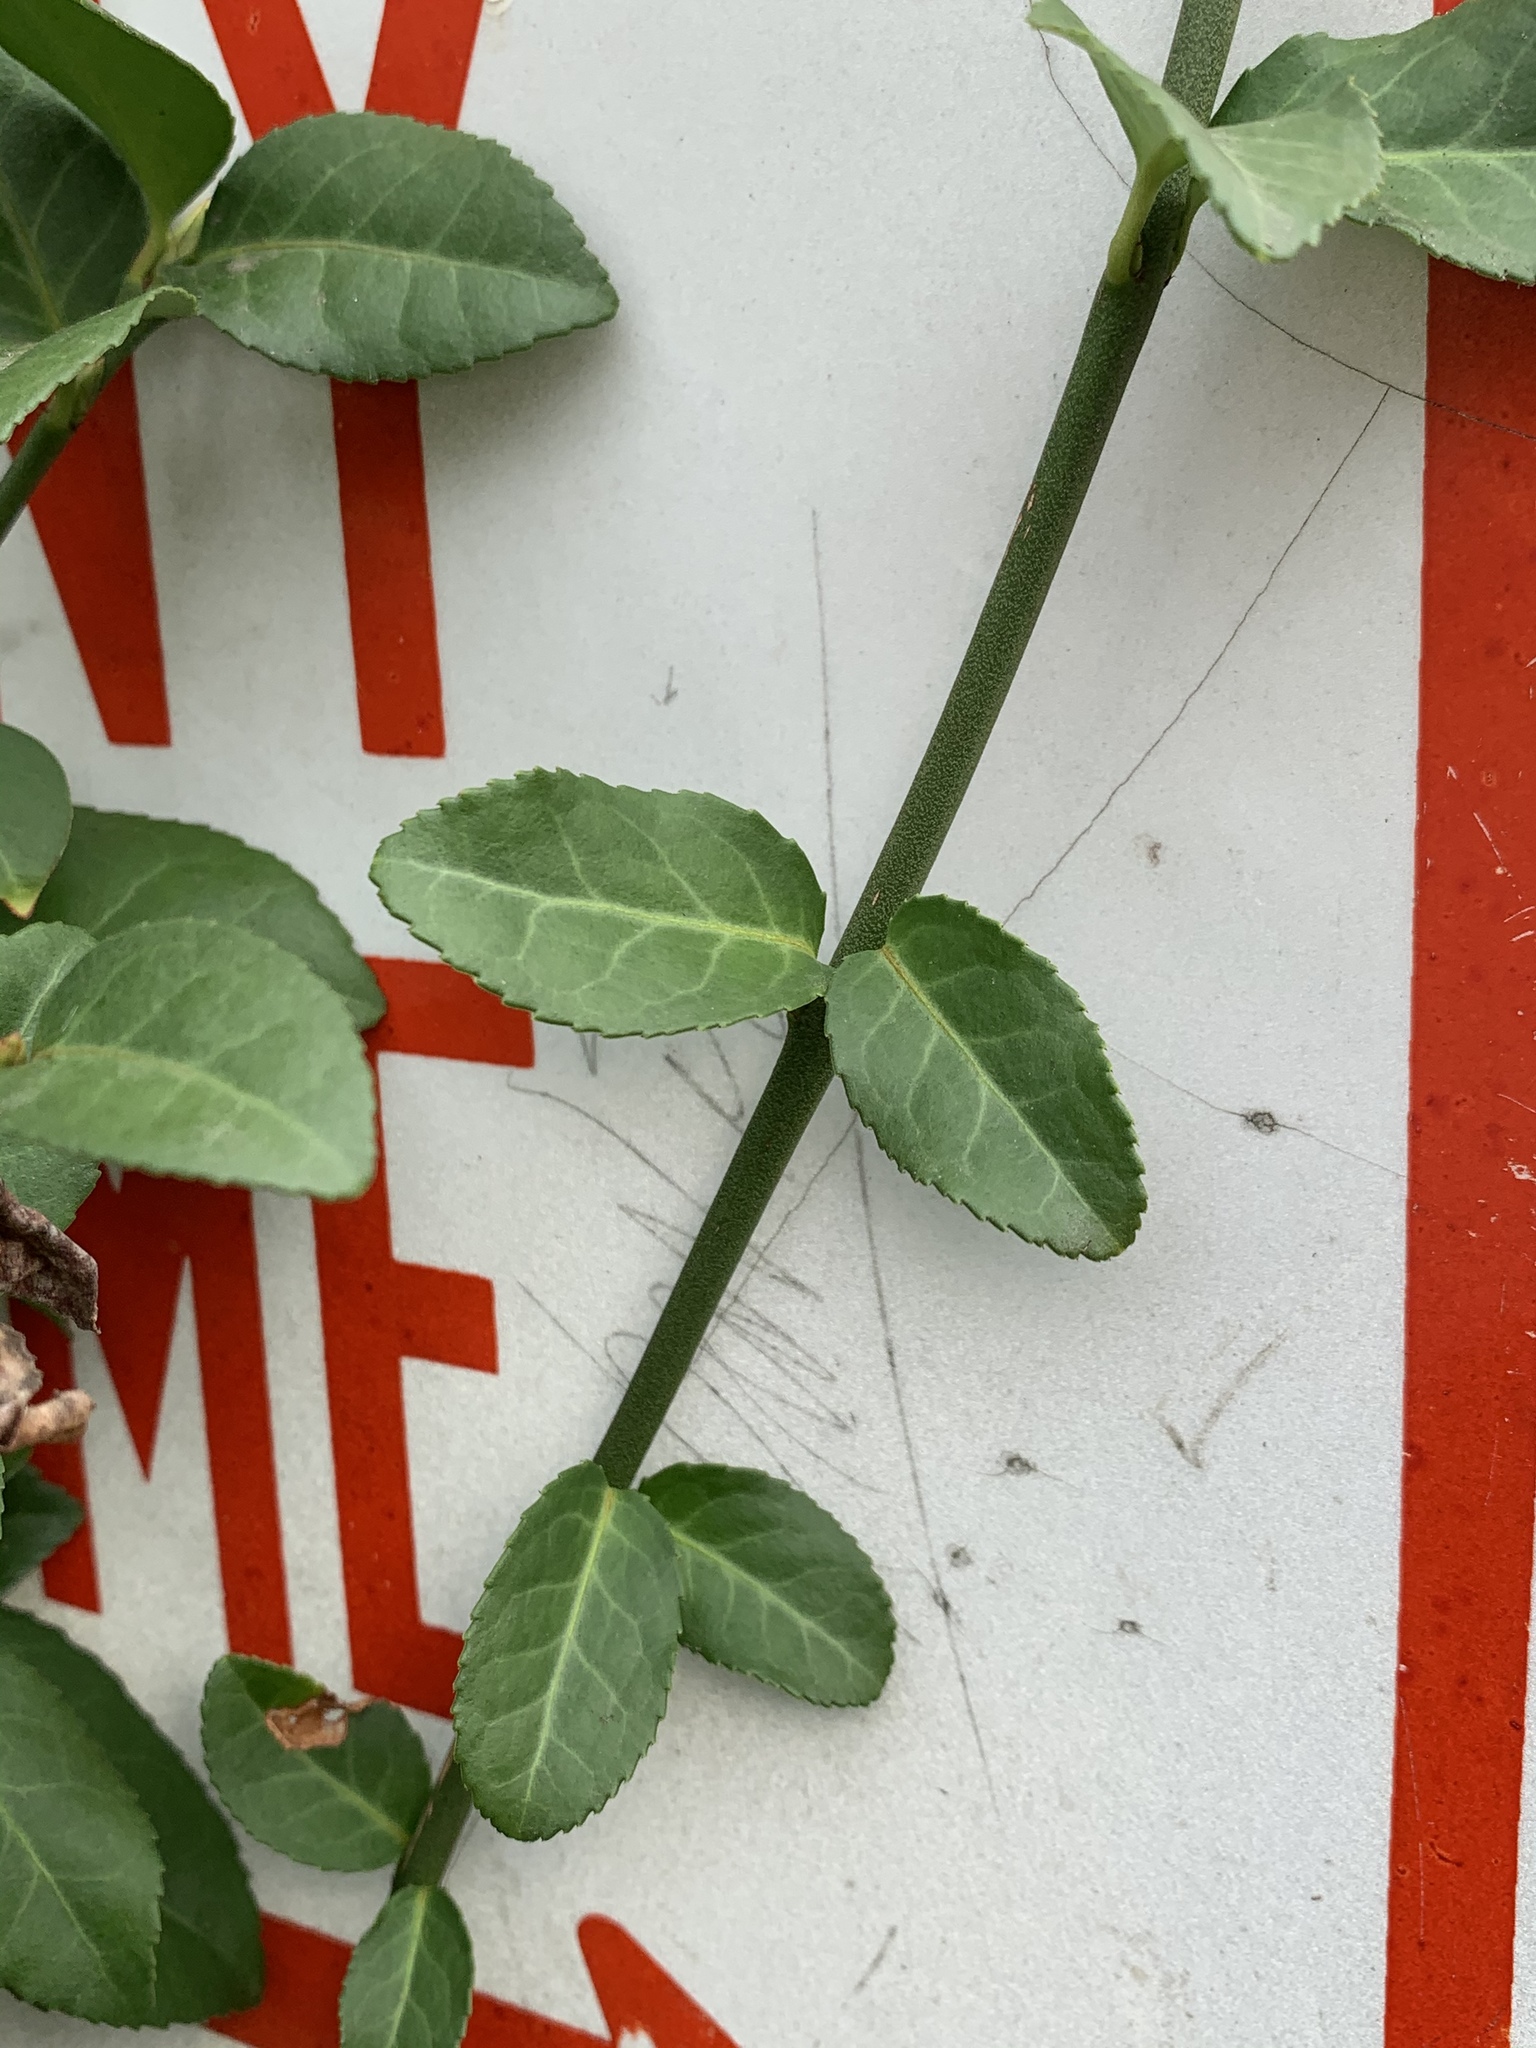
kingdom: Plantae
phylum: Tracheophyta
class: Magnoliopsida
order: Celastrales
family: Celastraceae
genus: Euonymus
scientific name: Euonymus fortunei
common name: Climbing euonymus
